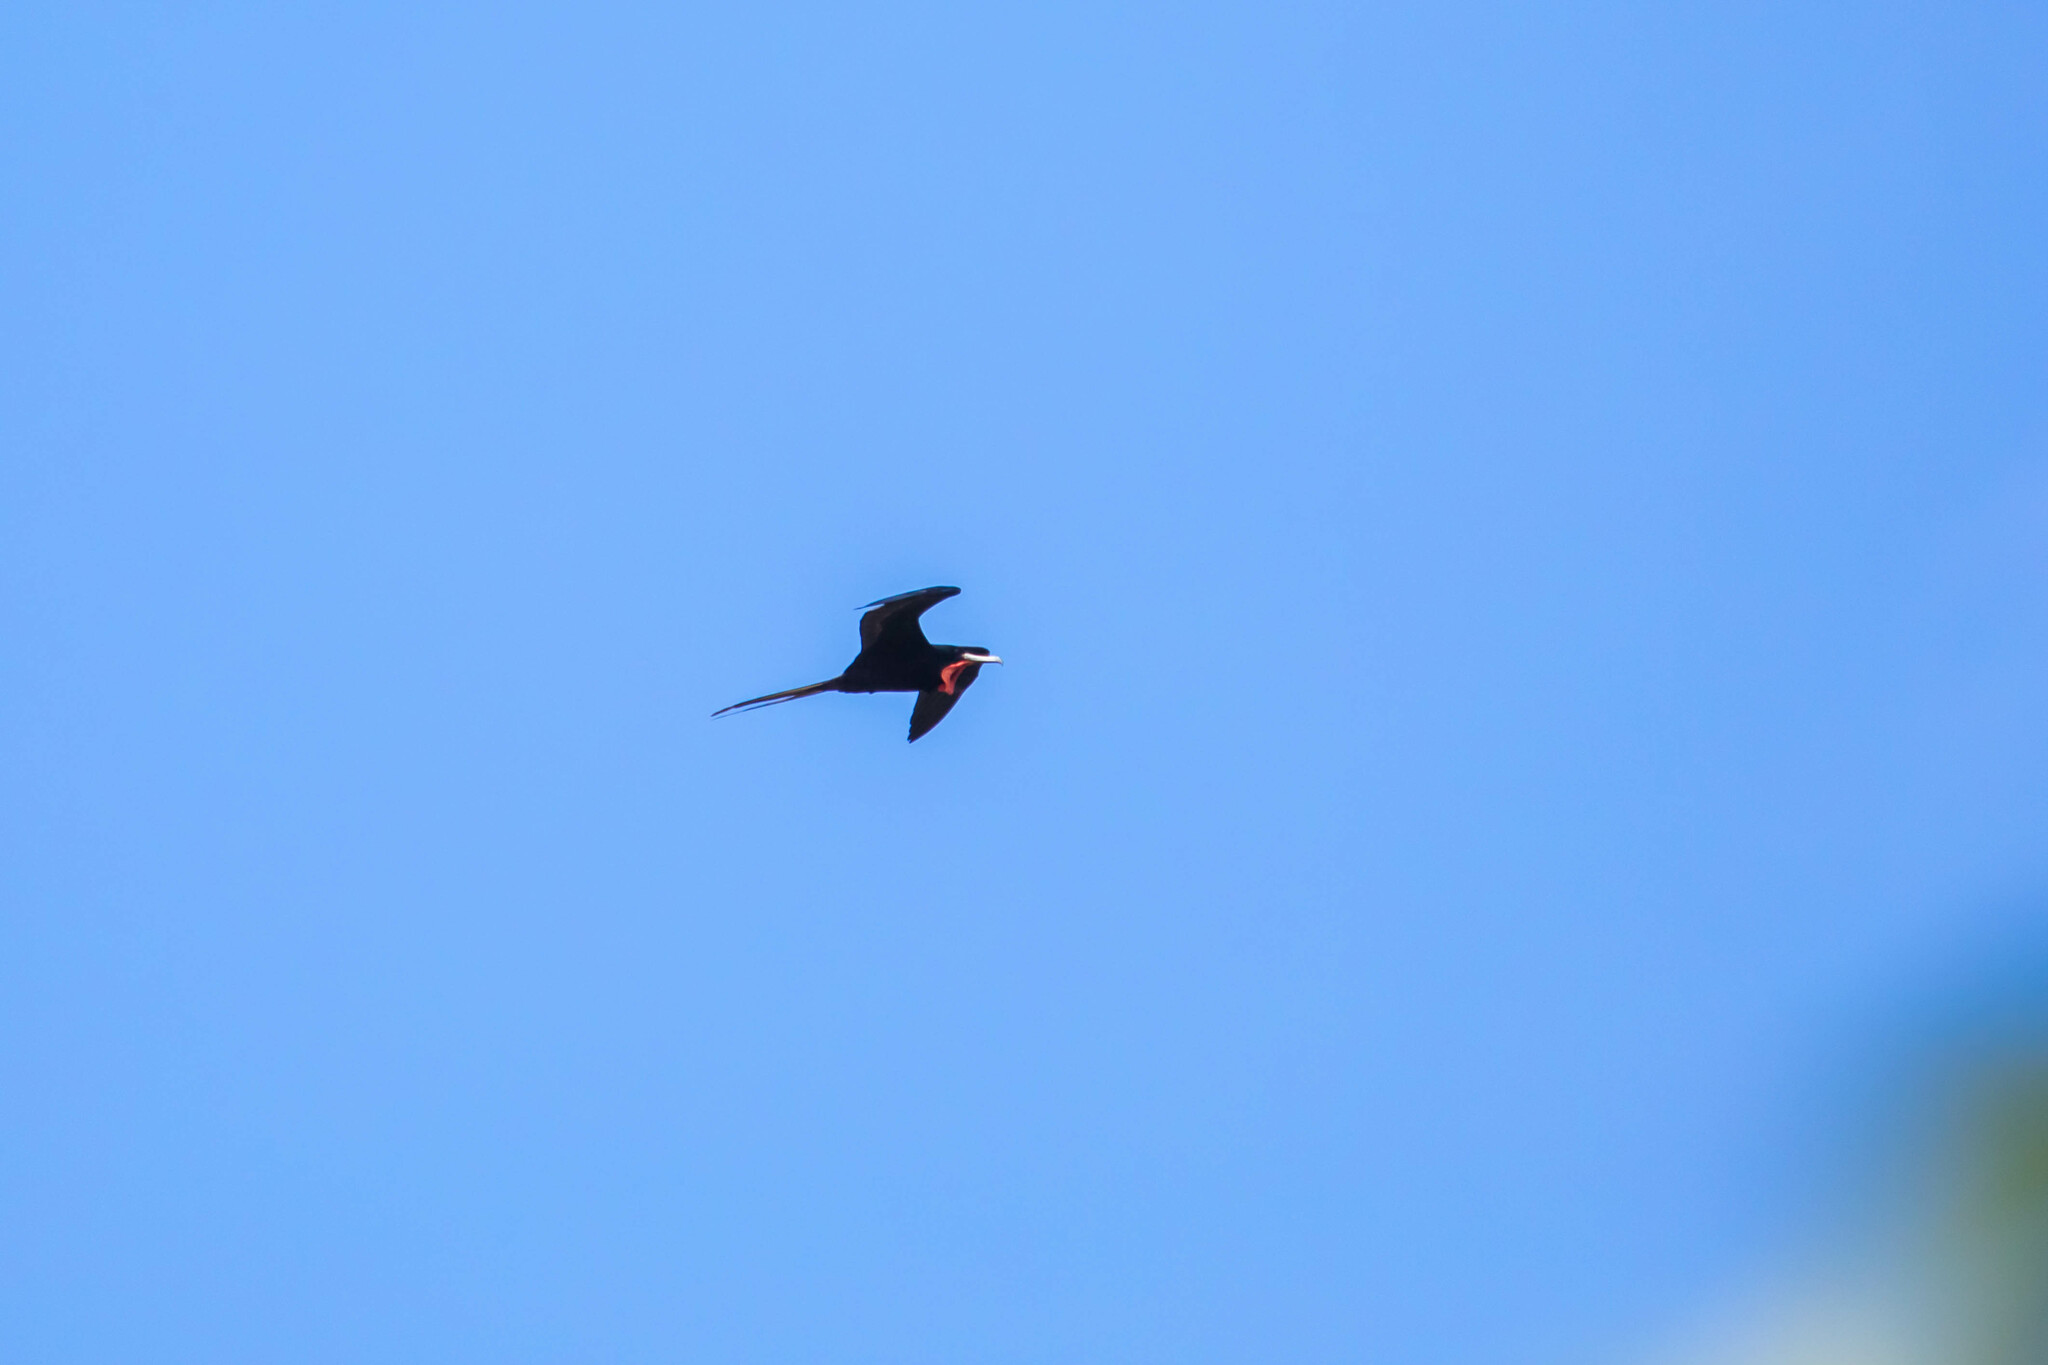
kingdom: Animalia
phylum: Chordata
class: Aves
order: Suliformes
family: Fregatidae
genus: Fregata
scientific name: Fregata magnificens
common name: Magnificent frigatebird
